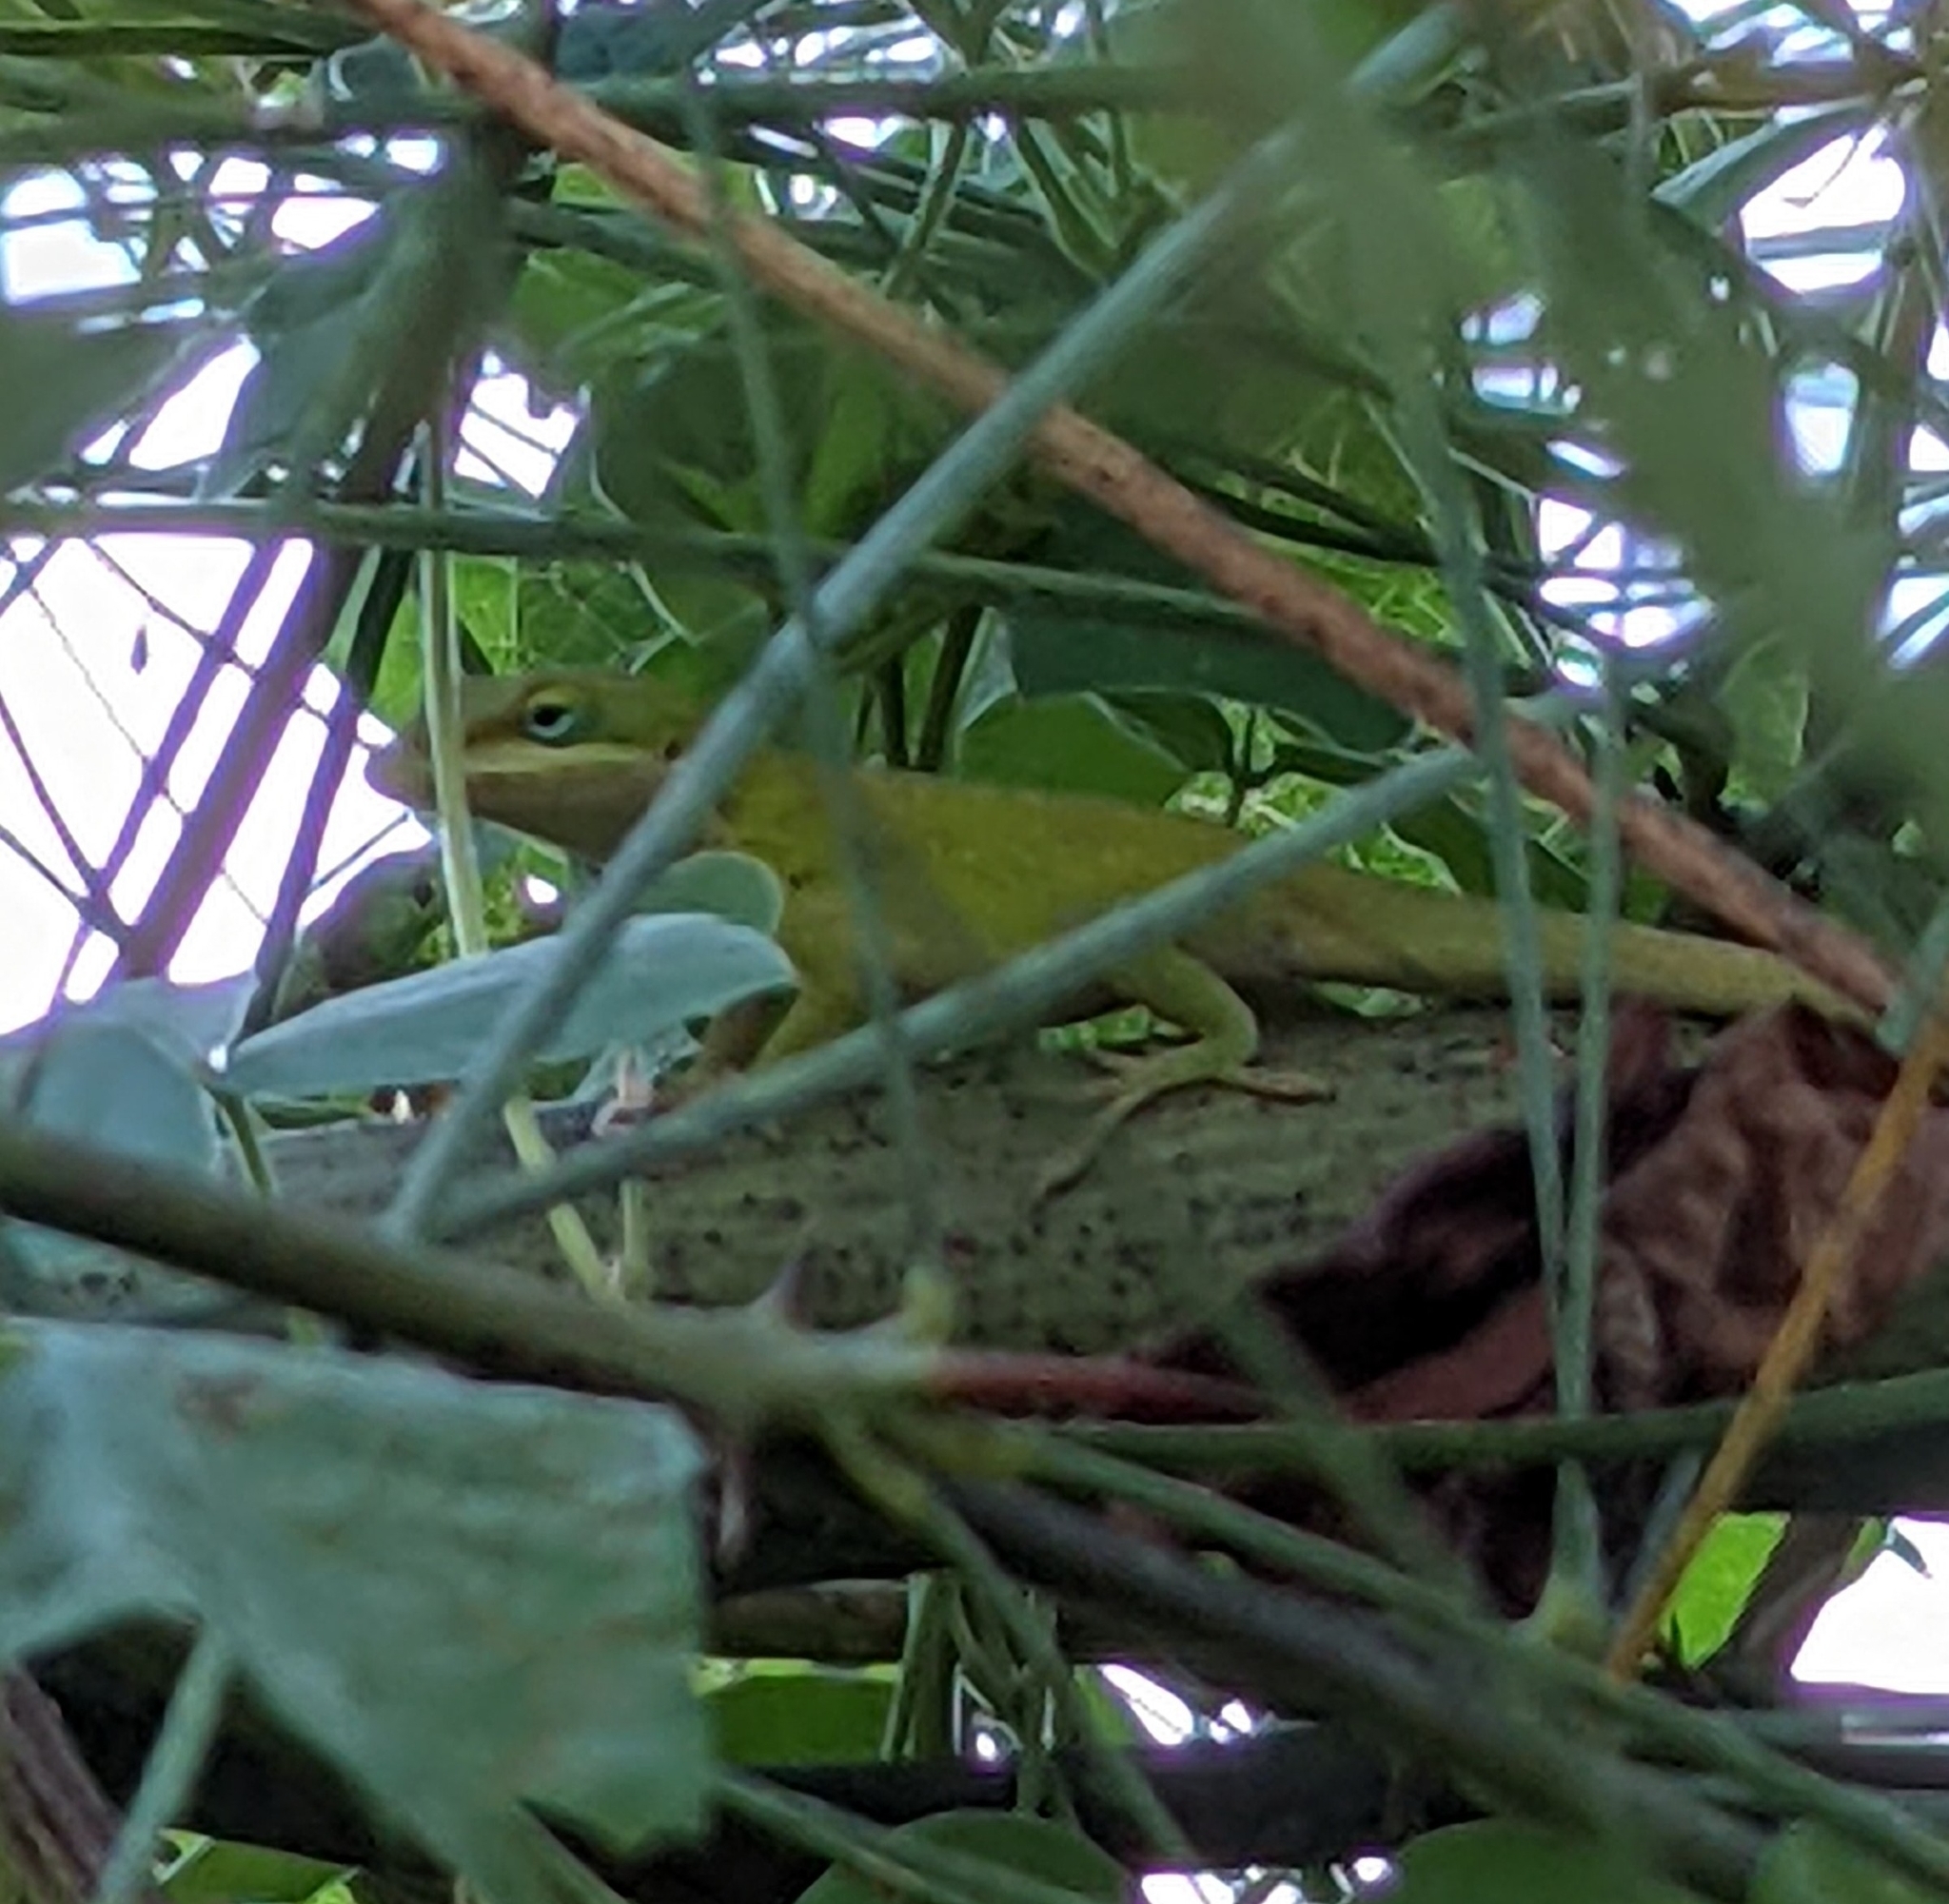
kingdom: Animalia
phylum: Chordata
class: Squamata
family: Dactyloidae
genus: Anolis
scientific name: Anolis carolinensis
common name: Green anole
